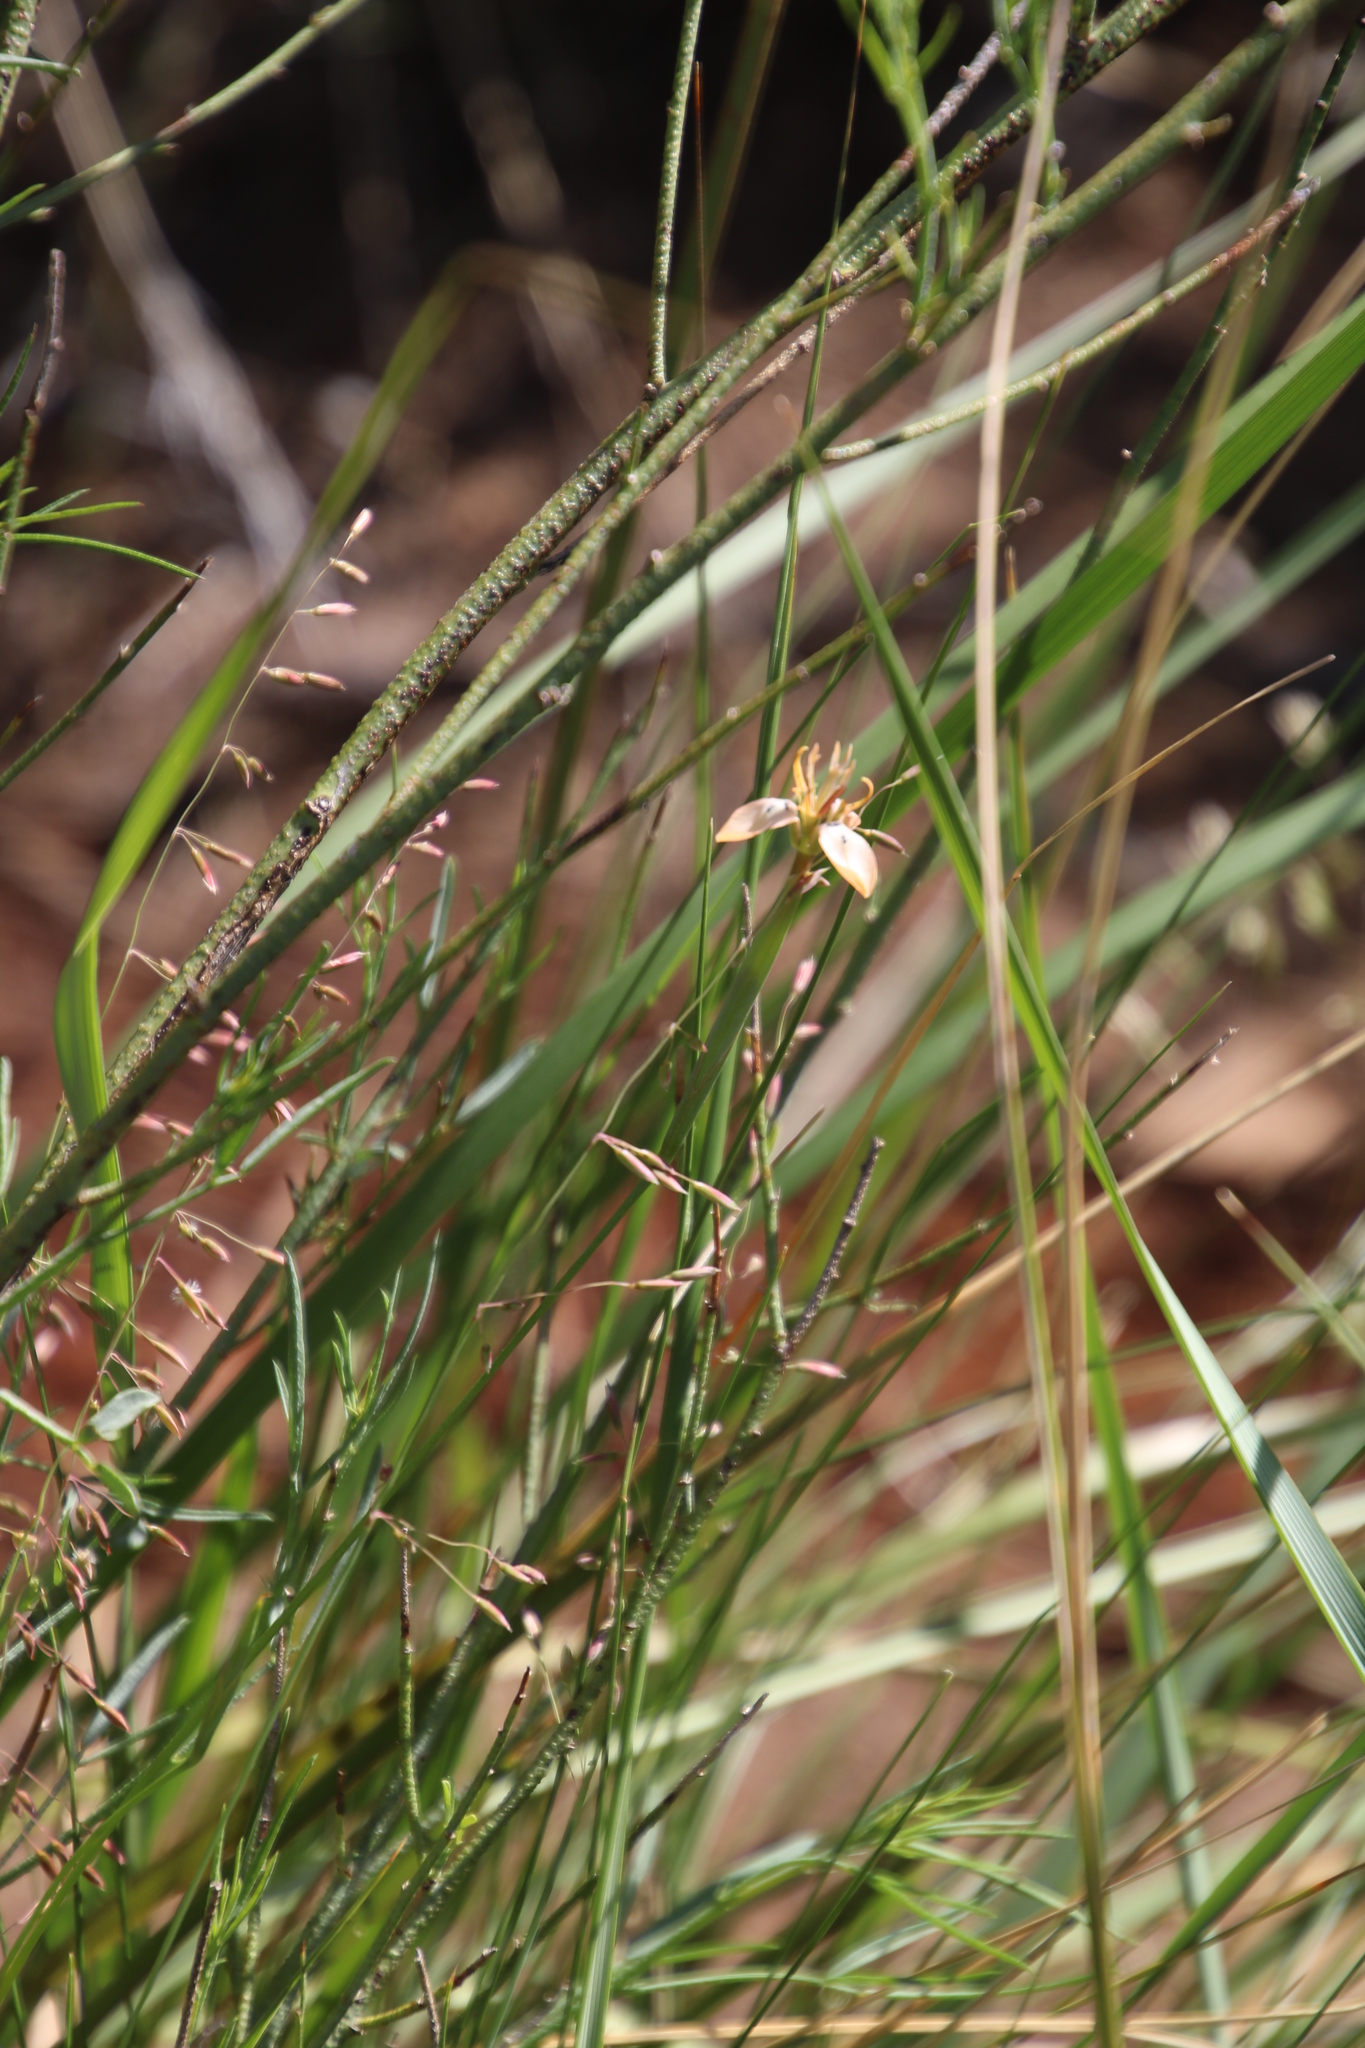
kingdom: Plantae
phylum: Tracheophyta
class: Liliopsida
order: Asparagales
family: Iridaceae
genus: Moraea
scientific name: Moraea unguiculata
